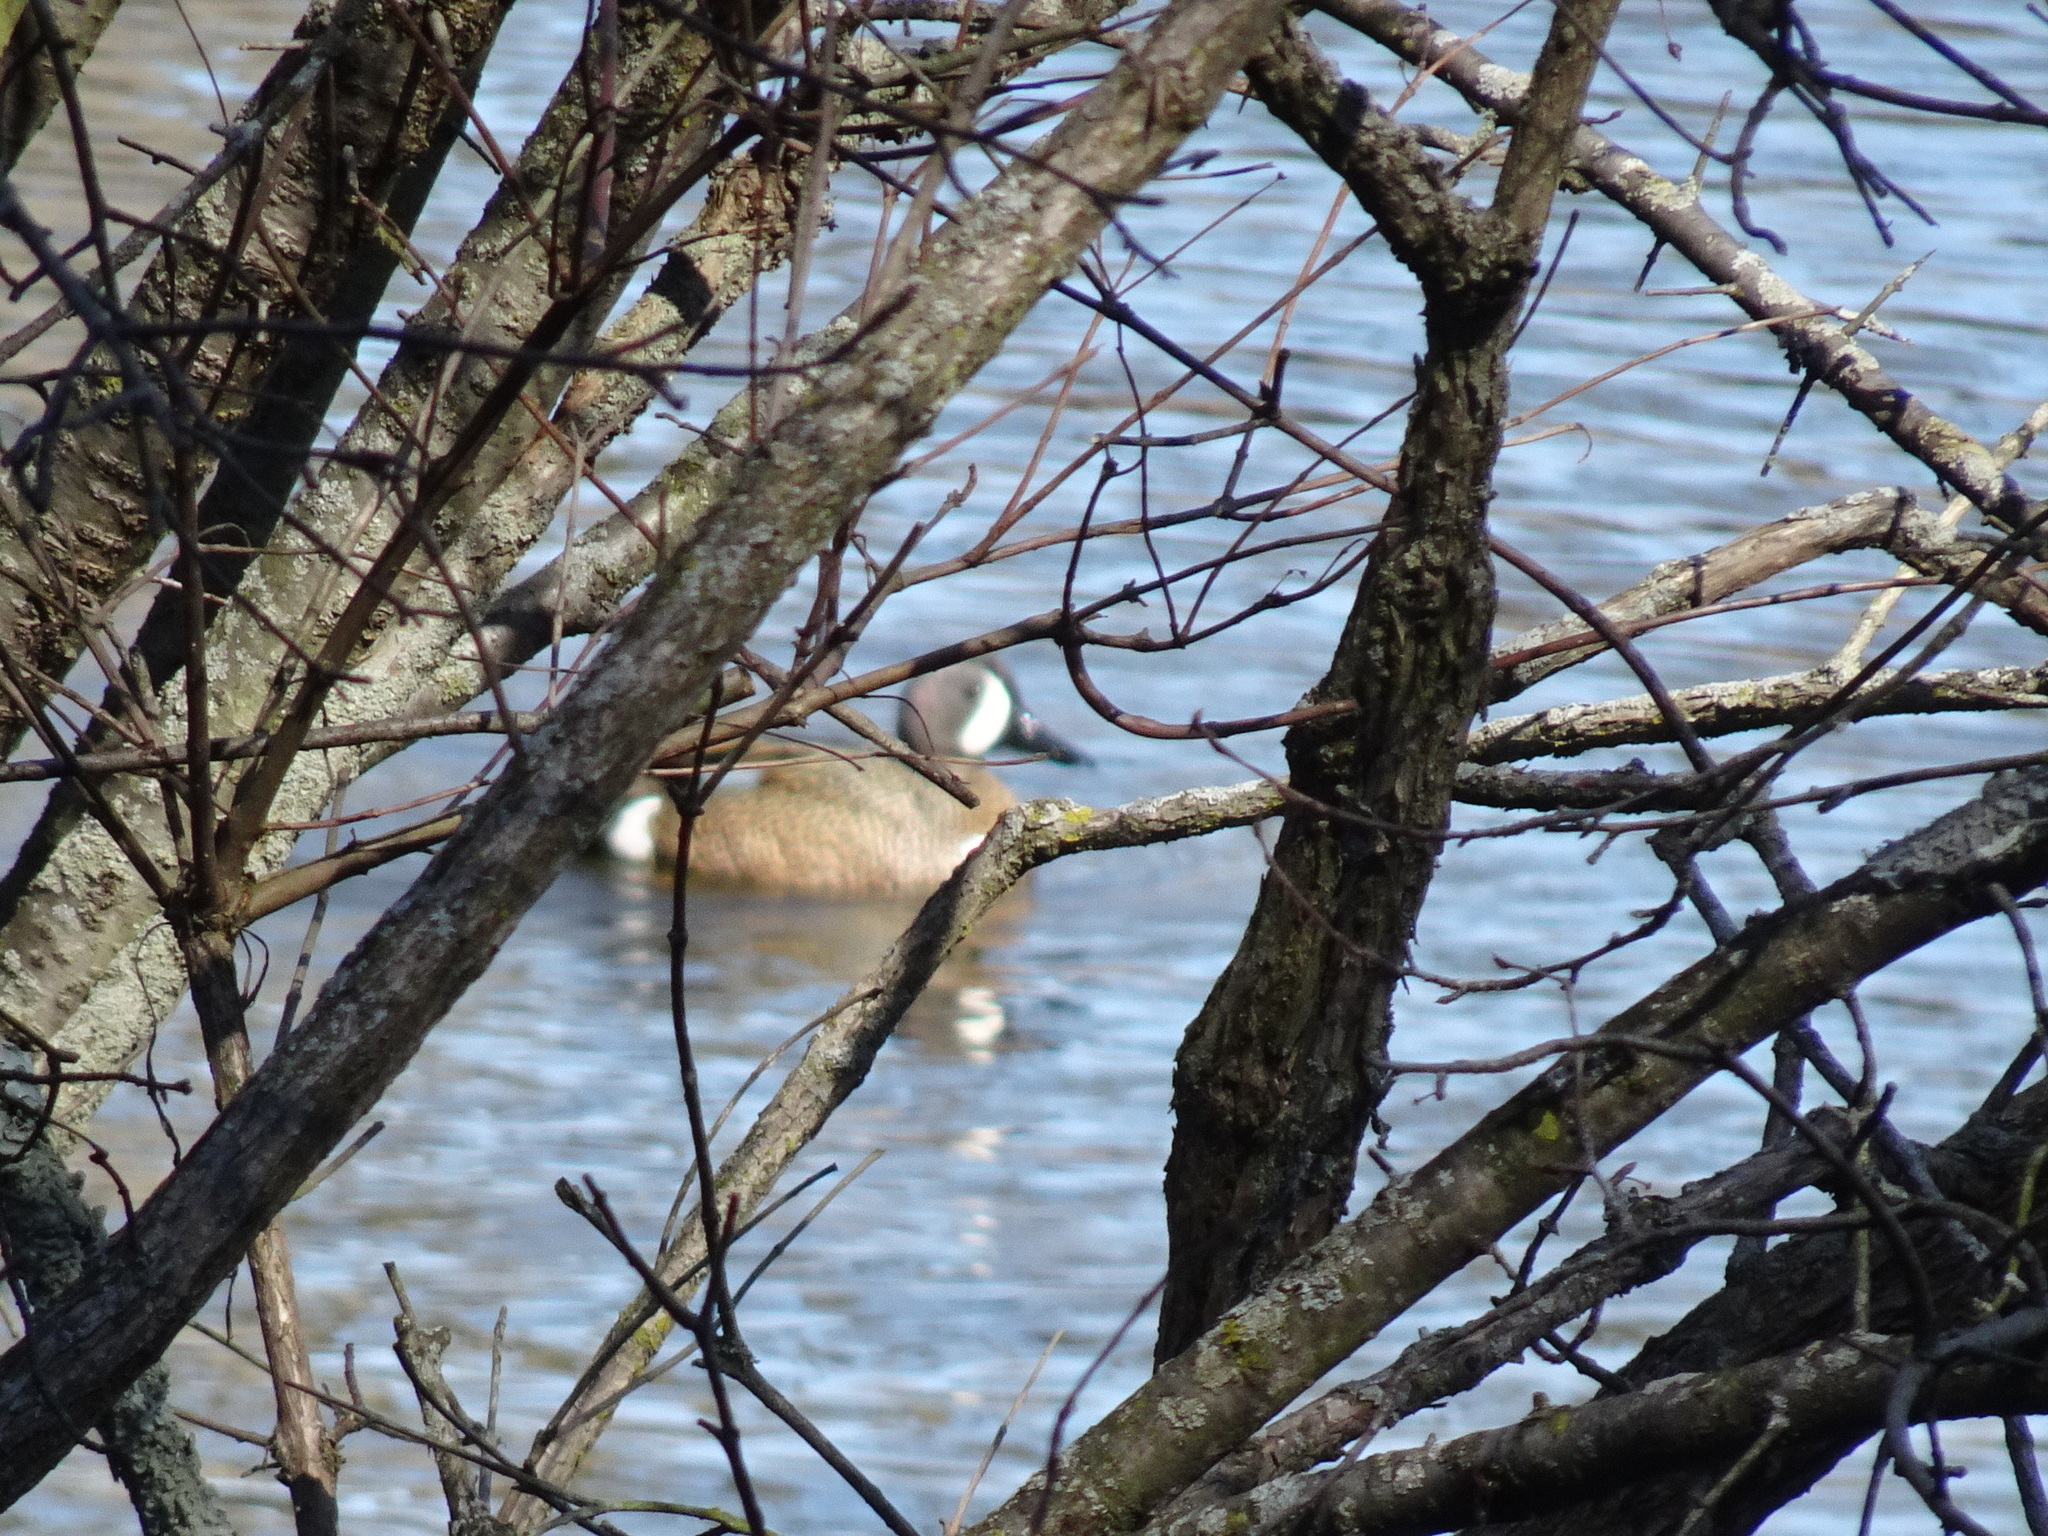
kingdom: Animalia
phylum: Chordata
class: Aves
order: Anseriformes
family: Anatidae
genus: Spatula
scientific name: Spatula discors
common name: Blue-winged teal
